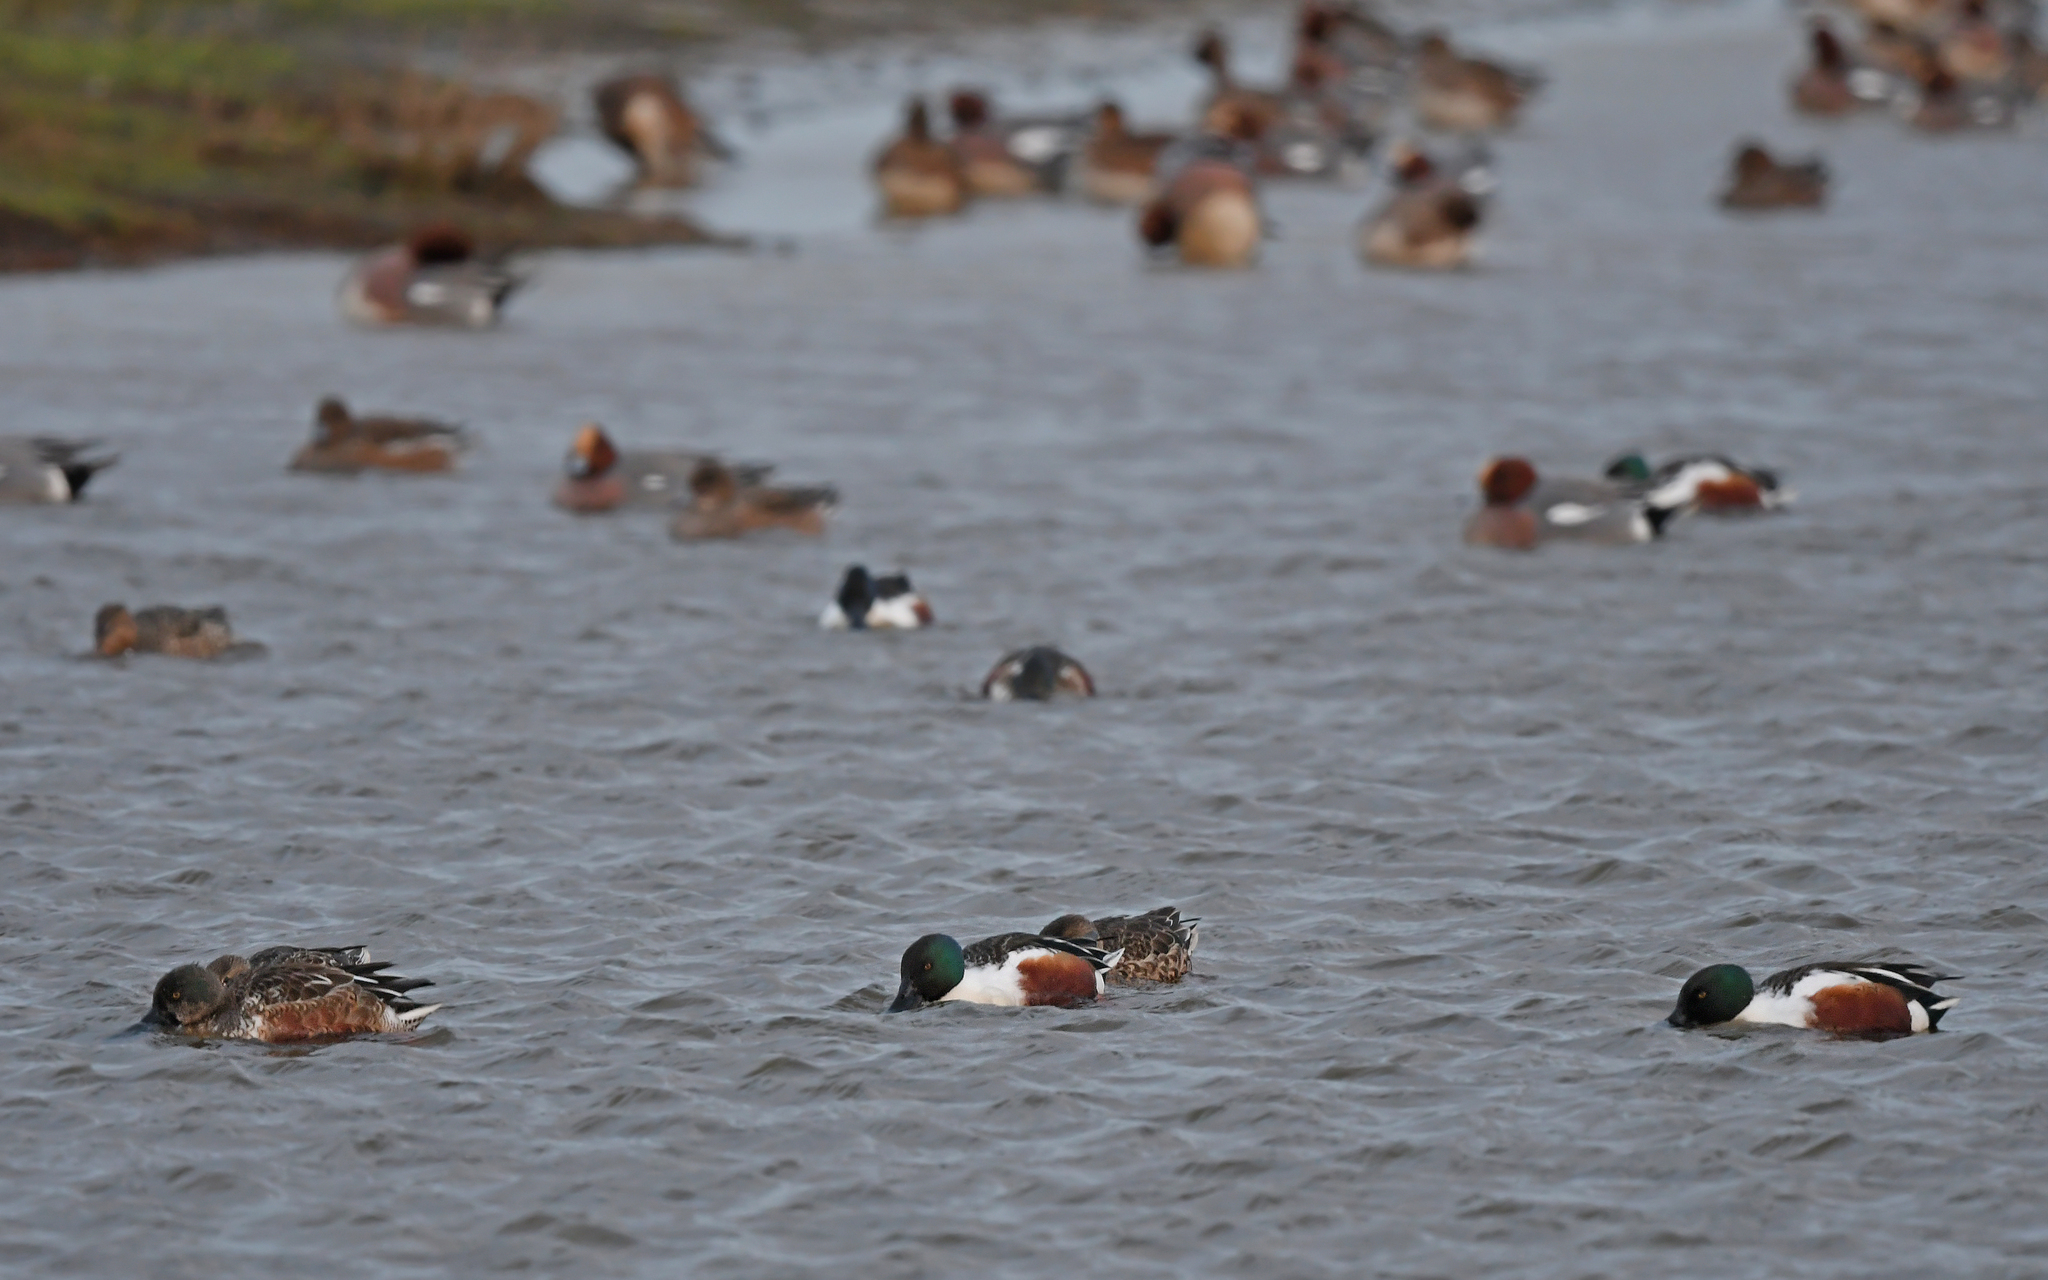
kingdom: Animalia
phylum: Chordata
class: Aves
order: Anseriformes
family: Anatidae
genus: Spatula
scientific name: Spatula clypeata
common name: Northern shoveler
